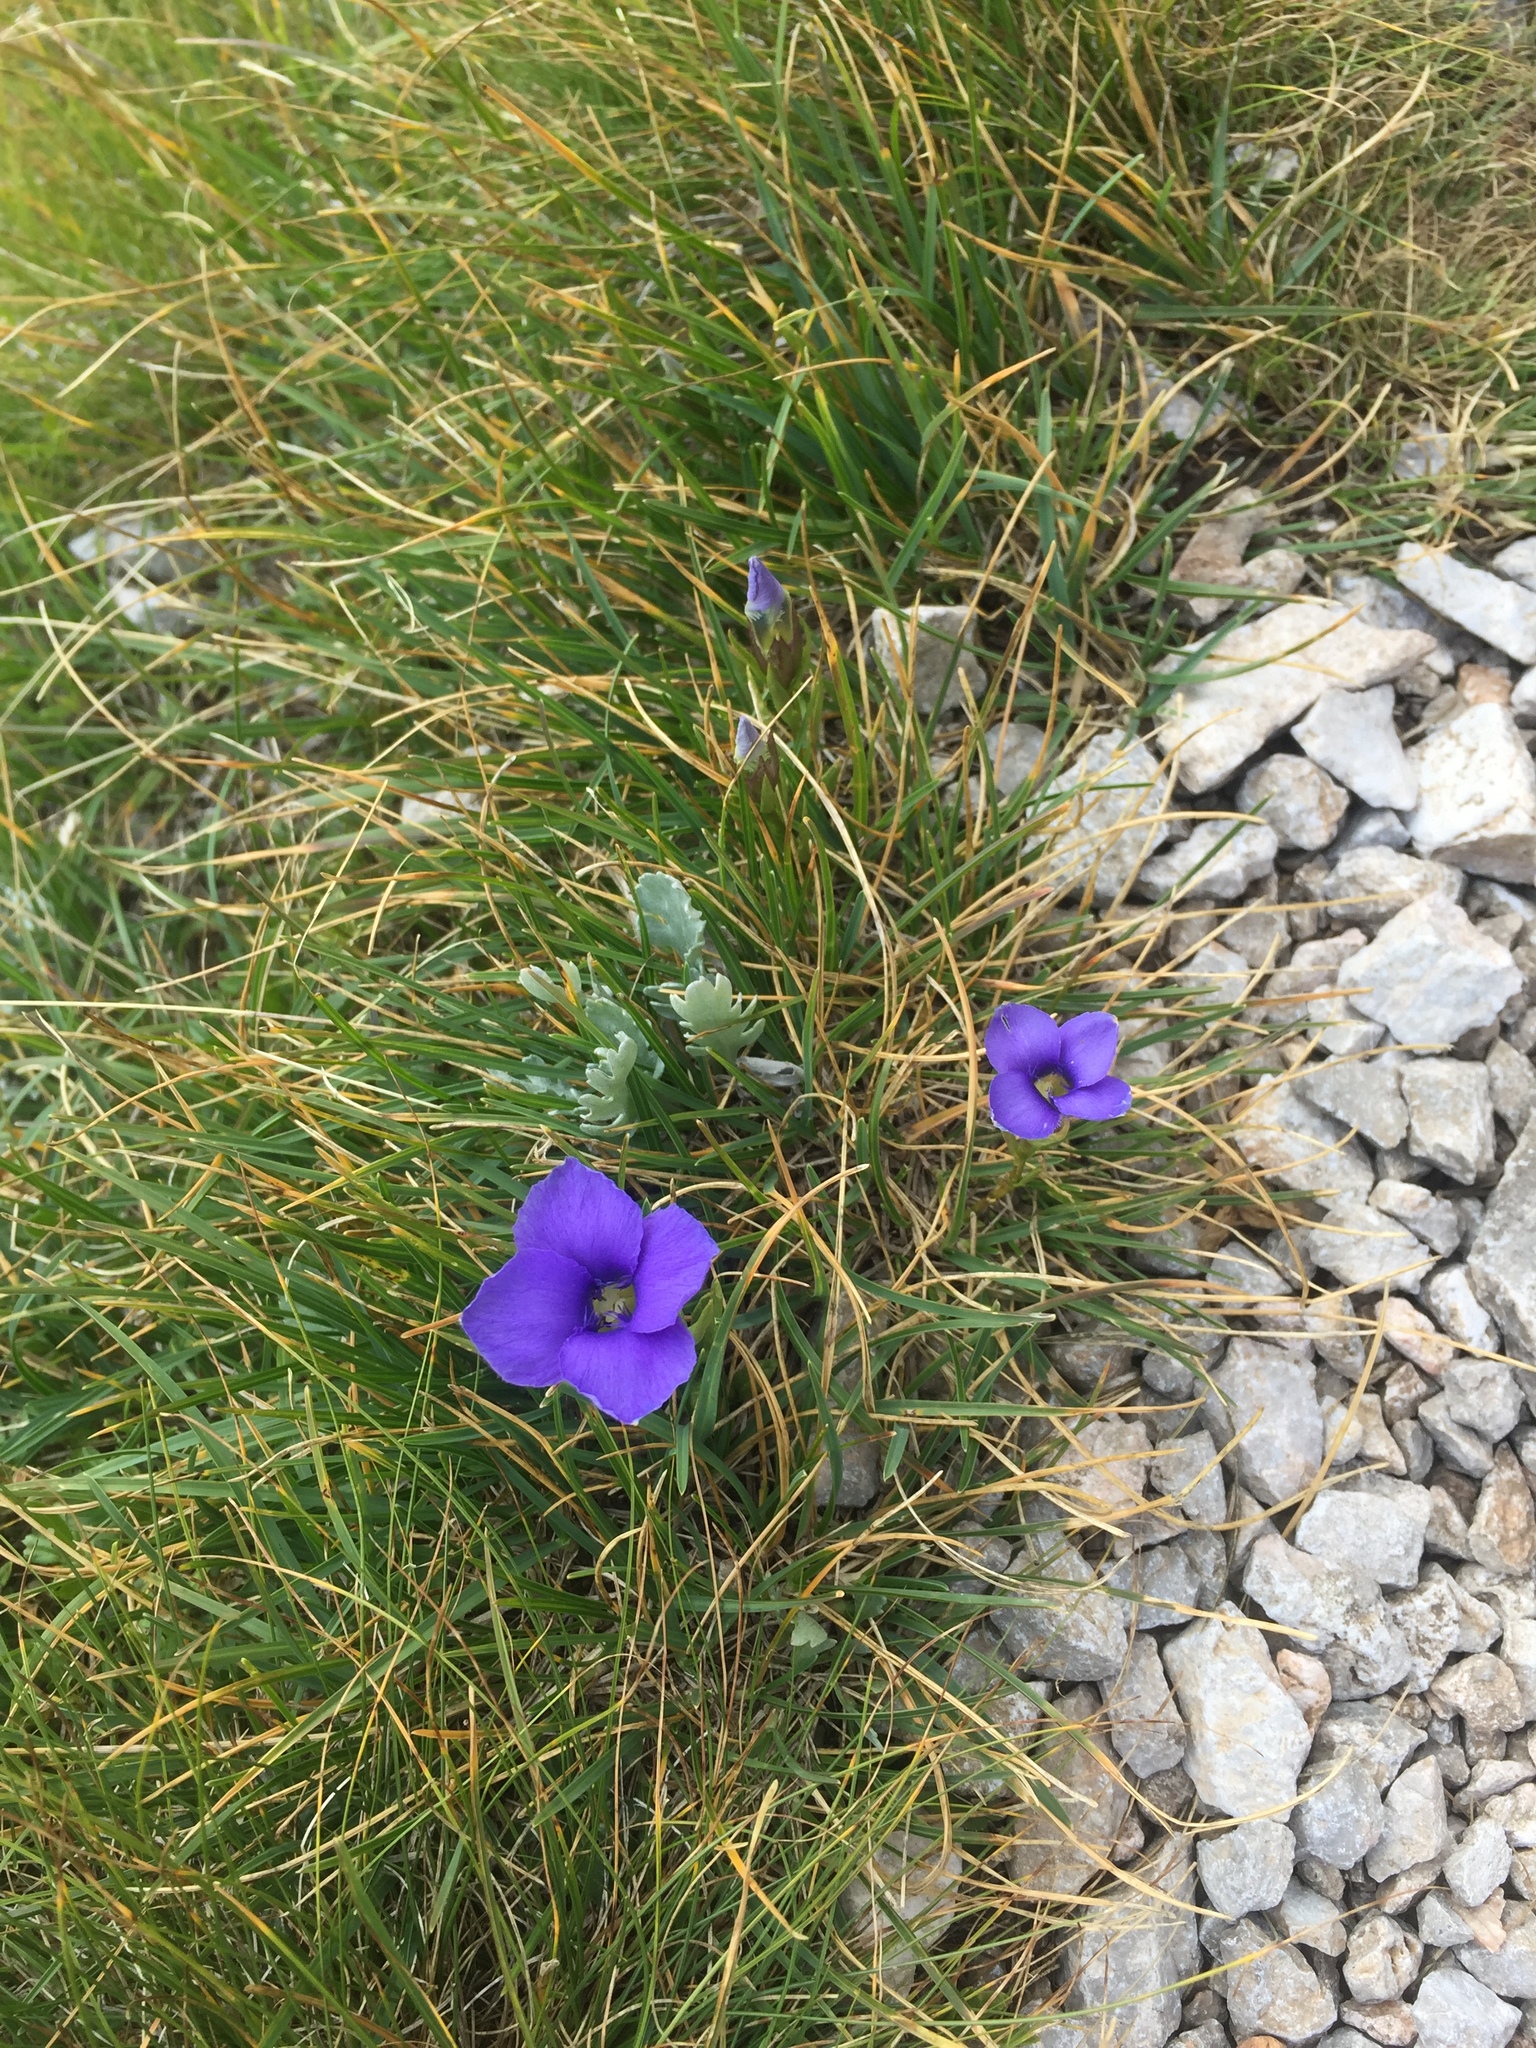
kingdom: Plantae
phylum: Tracheophyta
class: Magnoliopsida
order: Gentianales
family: Gentianaceae
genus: Gentianopsis
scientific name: Gentianopsis ciliata
